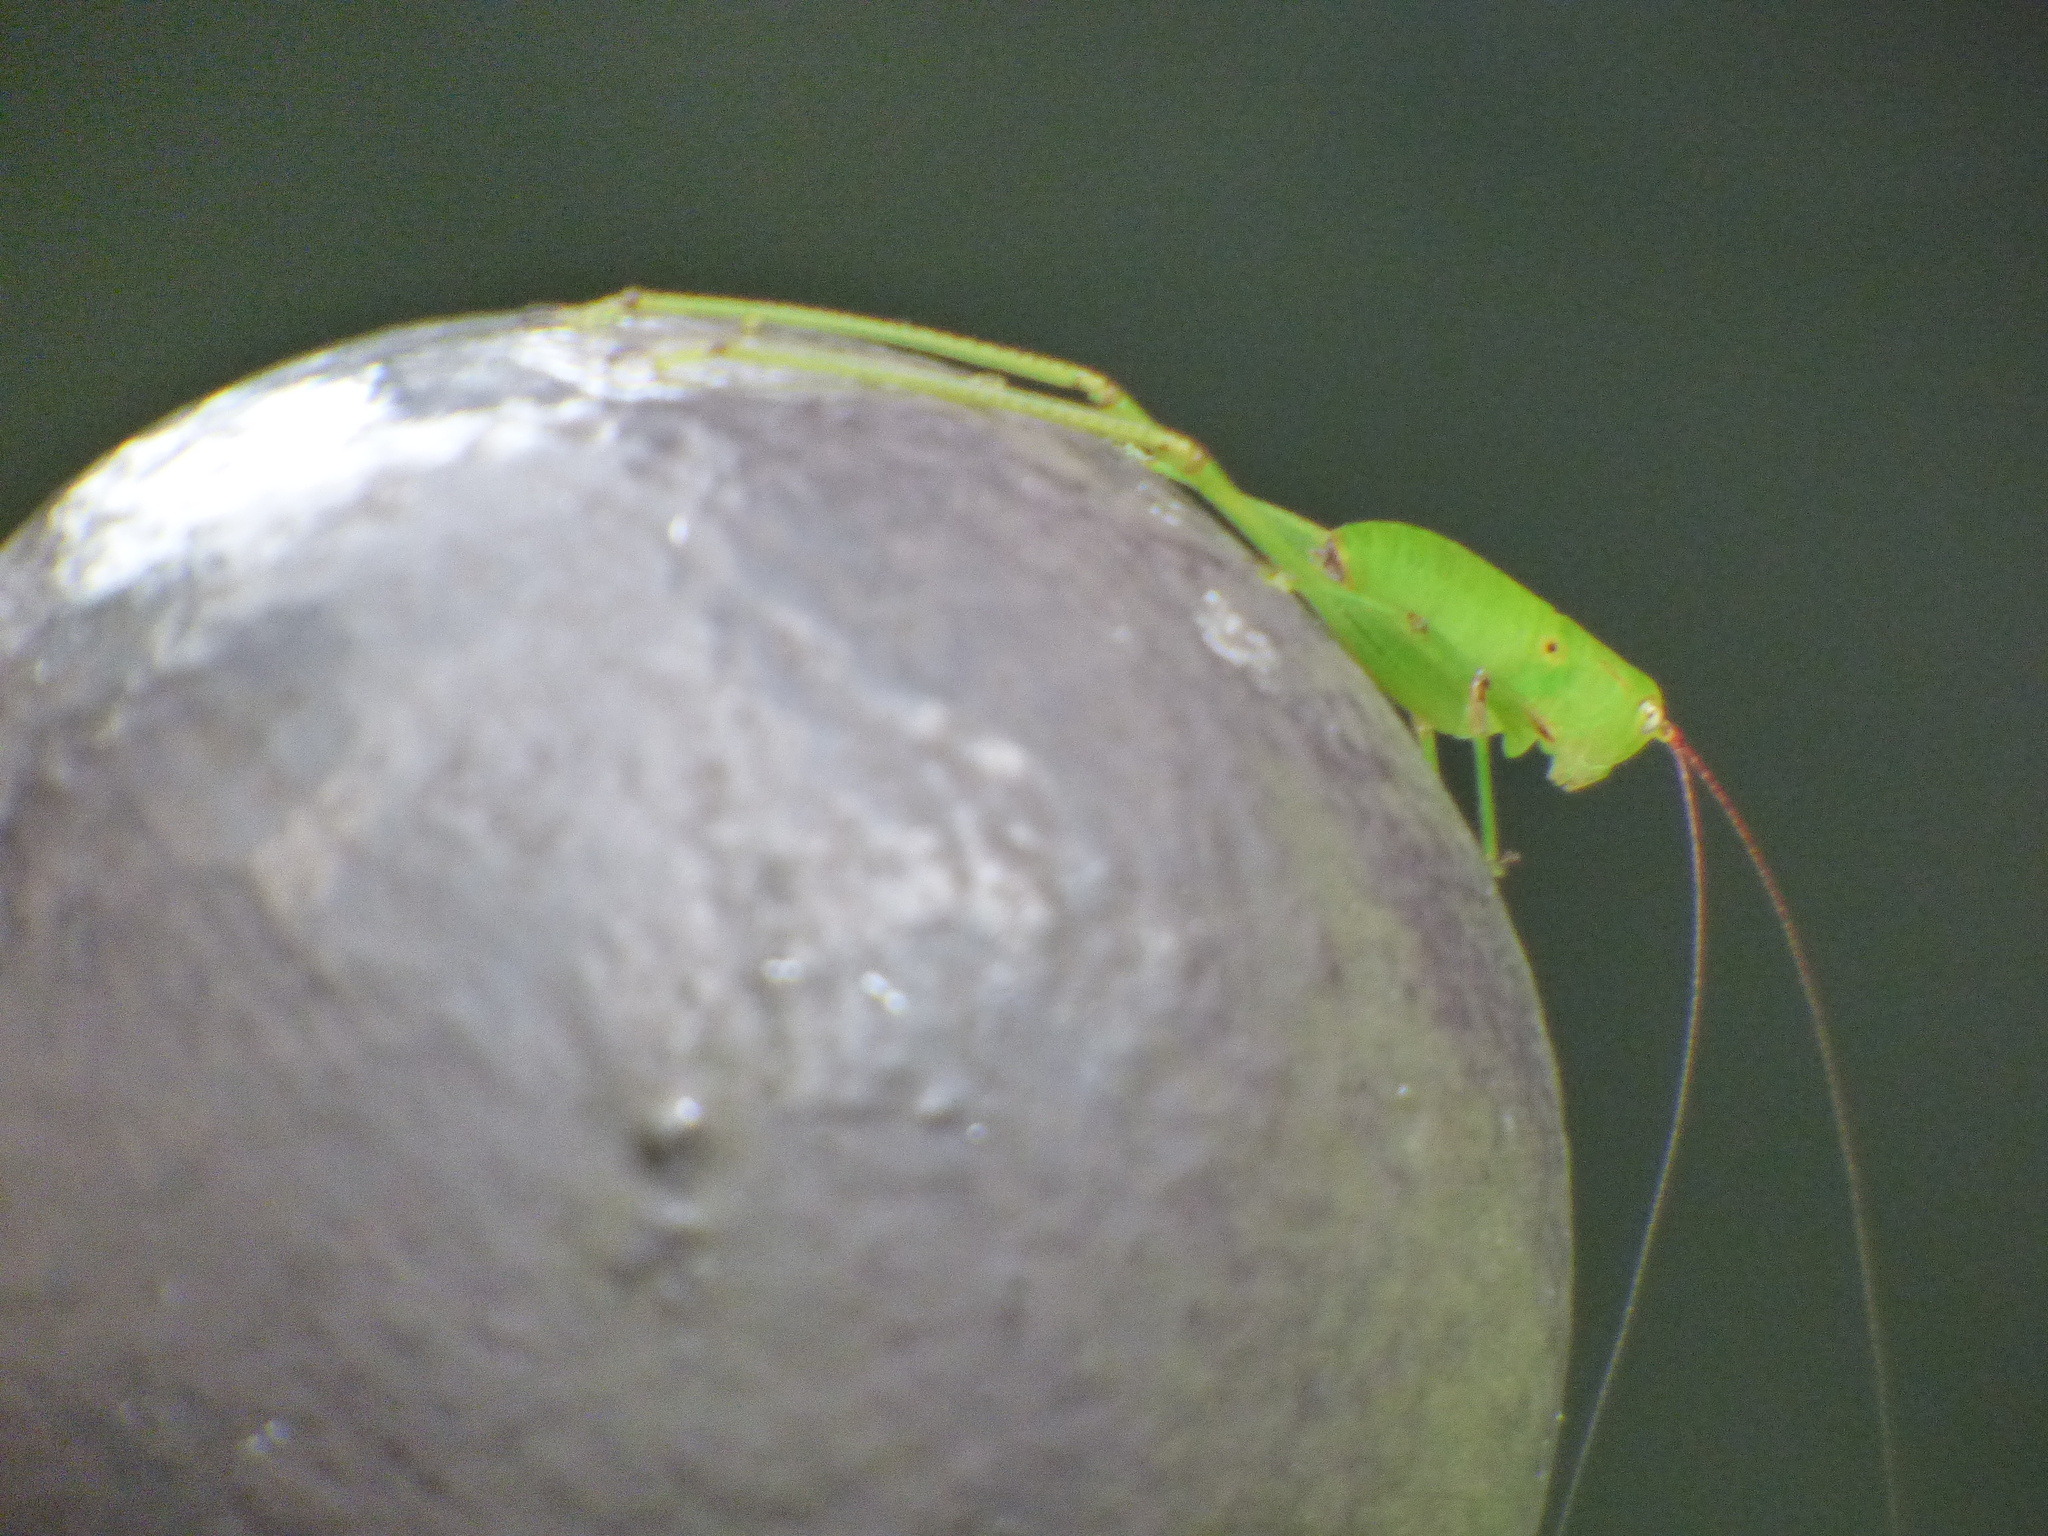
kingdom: Animalia
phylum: Arthropoda
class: Insecta
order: Orthoptera
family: Tettigoniidae
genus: Holochlora
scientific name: Holochlora japonica
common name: Japanese broadwinged katydid
